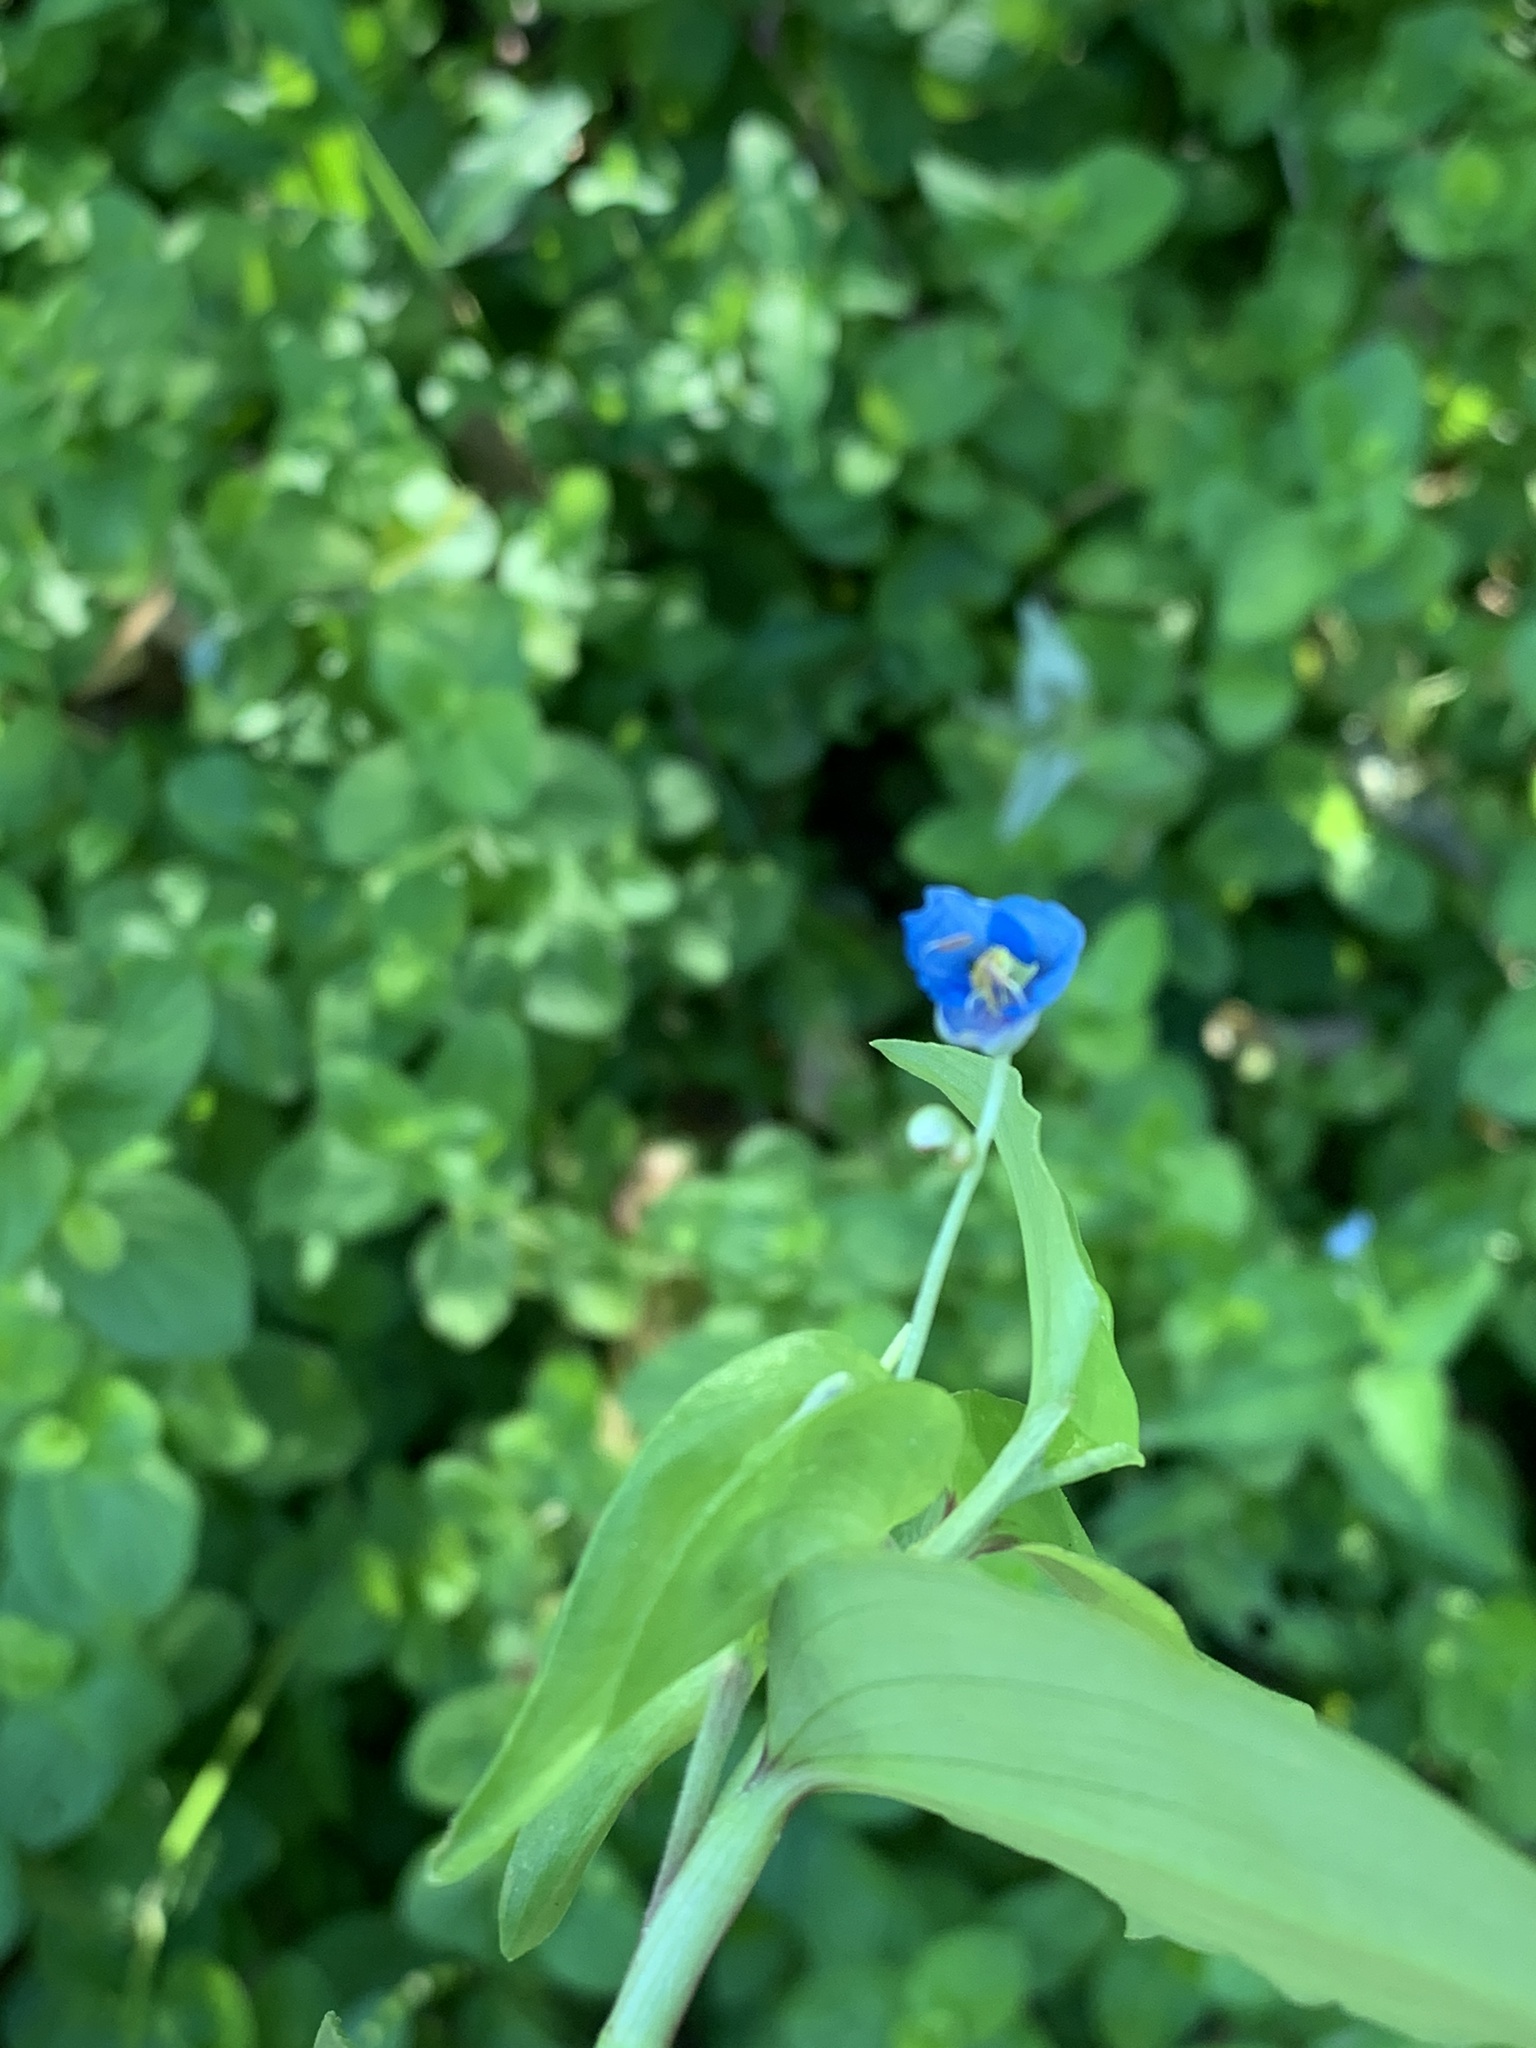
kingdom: Plantae
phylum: Tracheophyta
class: Liliopsida
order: Commelinales
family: Commelinaceae
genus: Commelina
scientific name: Commelina diffusa
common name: Climbing dayflower
